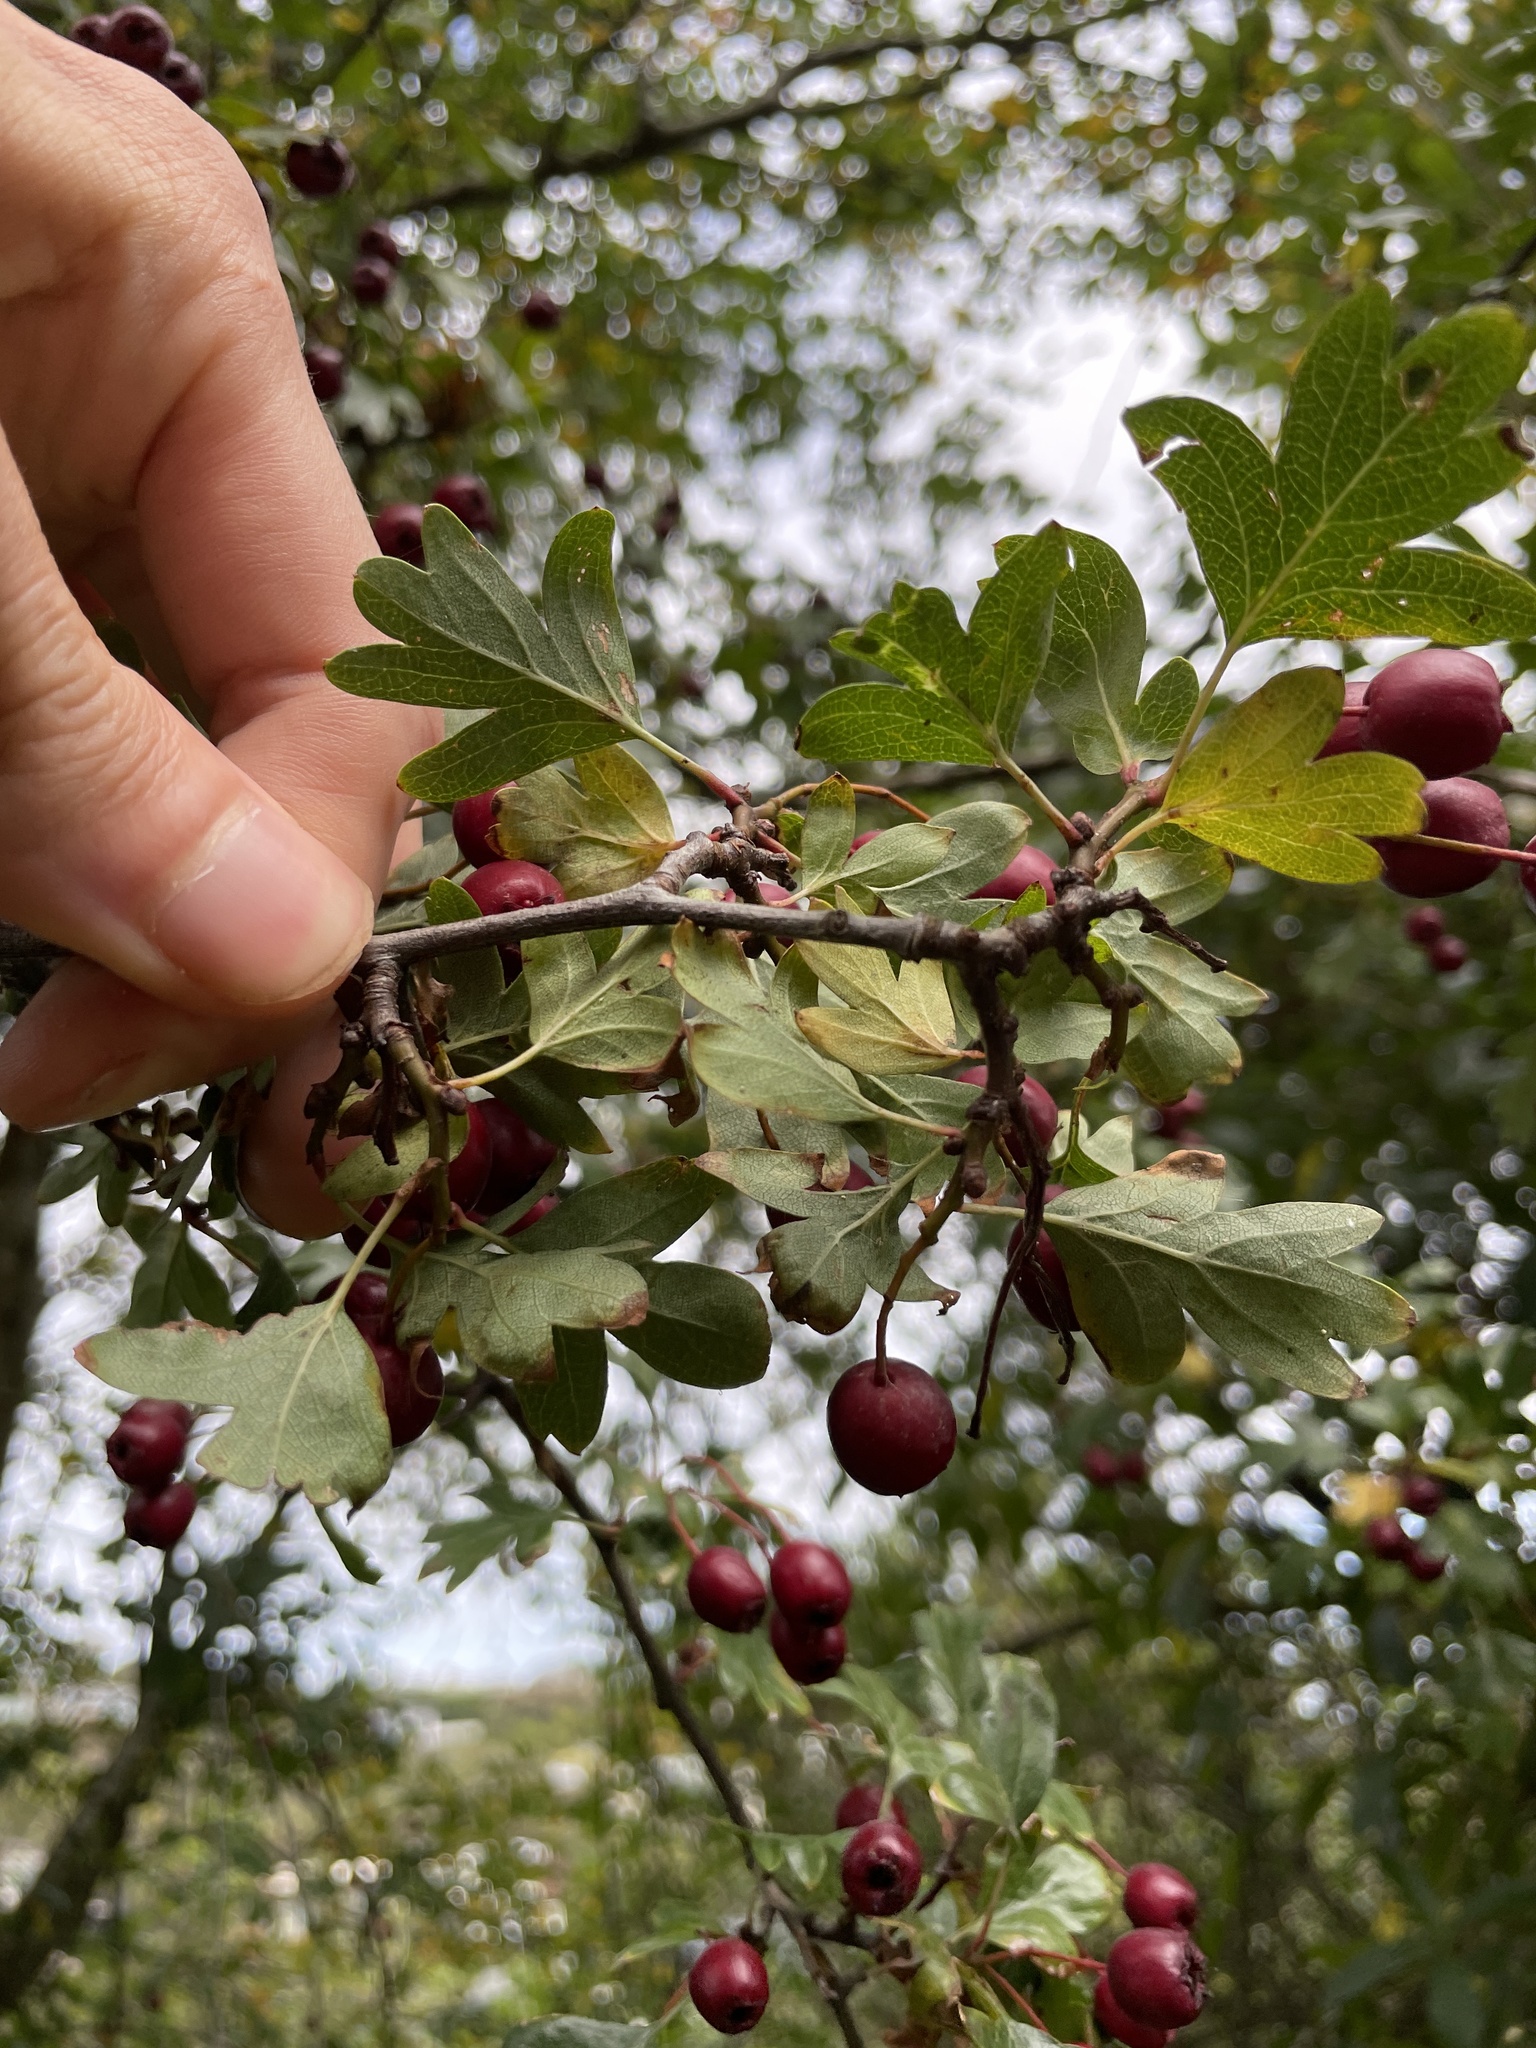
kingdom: Plantae
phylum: Tracheophyta
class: Magnoliopsida
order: Rosales
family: Rosaceae
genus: Crataegus
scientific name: Crataegus monogyna
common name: Hawthorn
